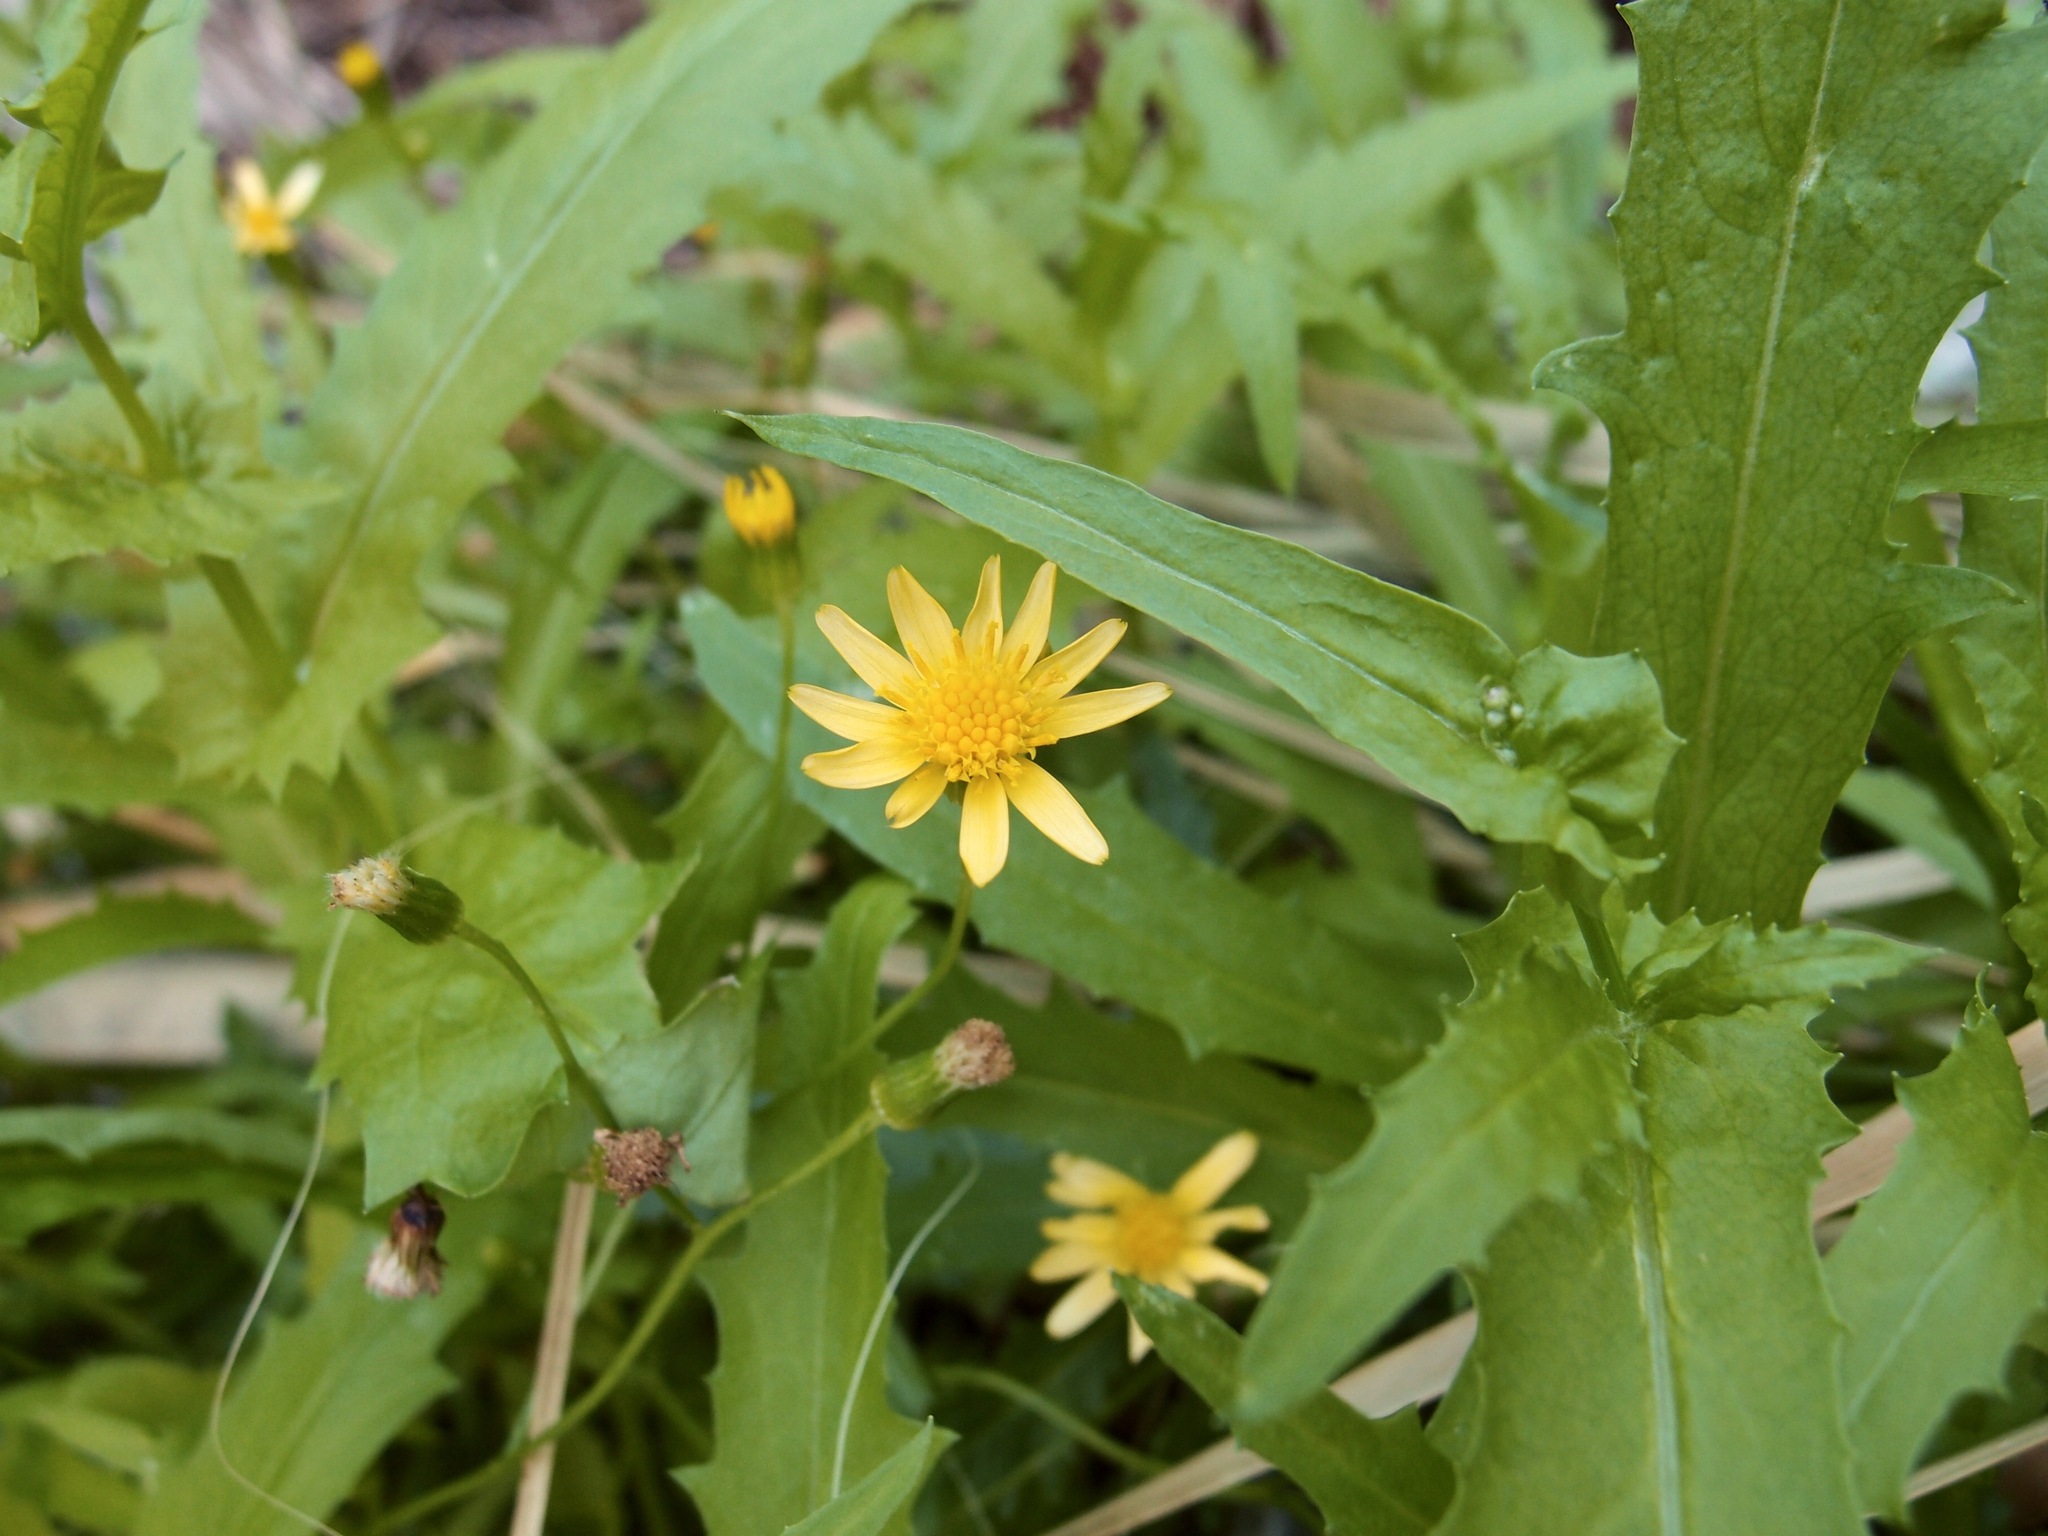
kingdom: Plantae
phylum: Tracheophyta
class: Magnoliopsida
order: Asterales
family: Asteraceae
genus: Senecio
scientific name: Senecio lemmonii
